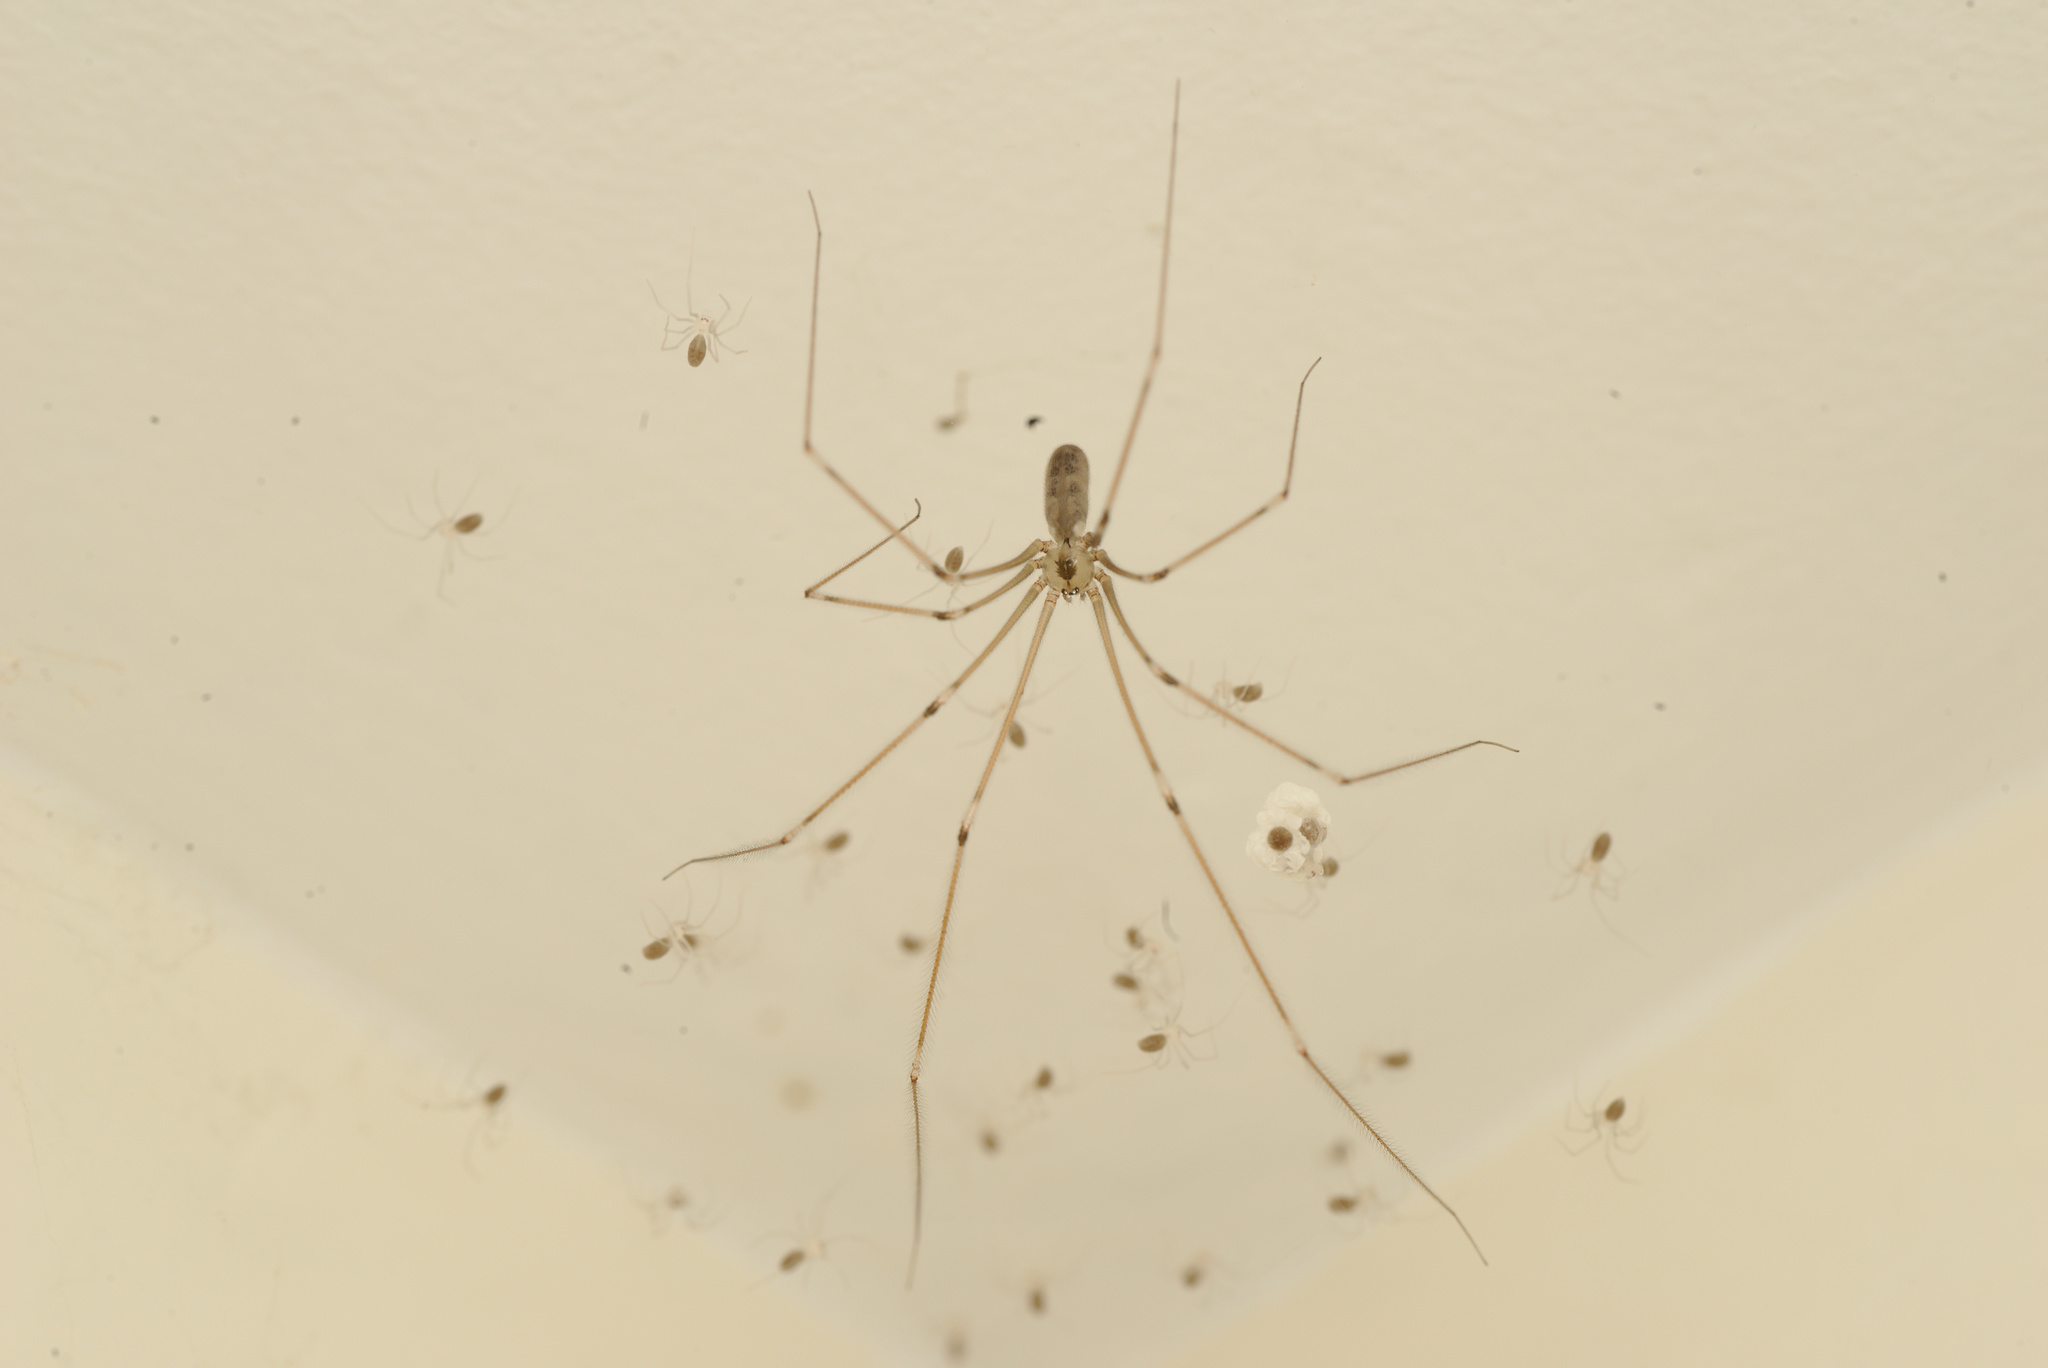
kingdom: Animalia
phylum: Arthropoda
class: Arachnida
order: Araneae
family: Pholcidae
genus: Pholcus
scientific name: Pholcus phalangioides
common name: Longbodied cellar spider
